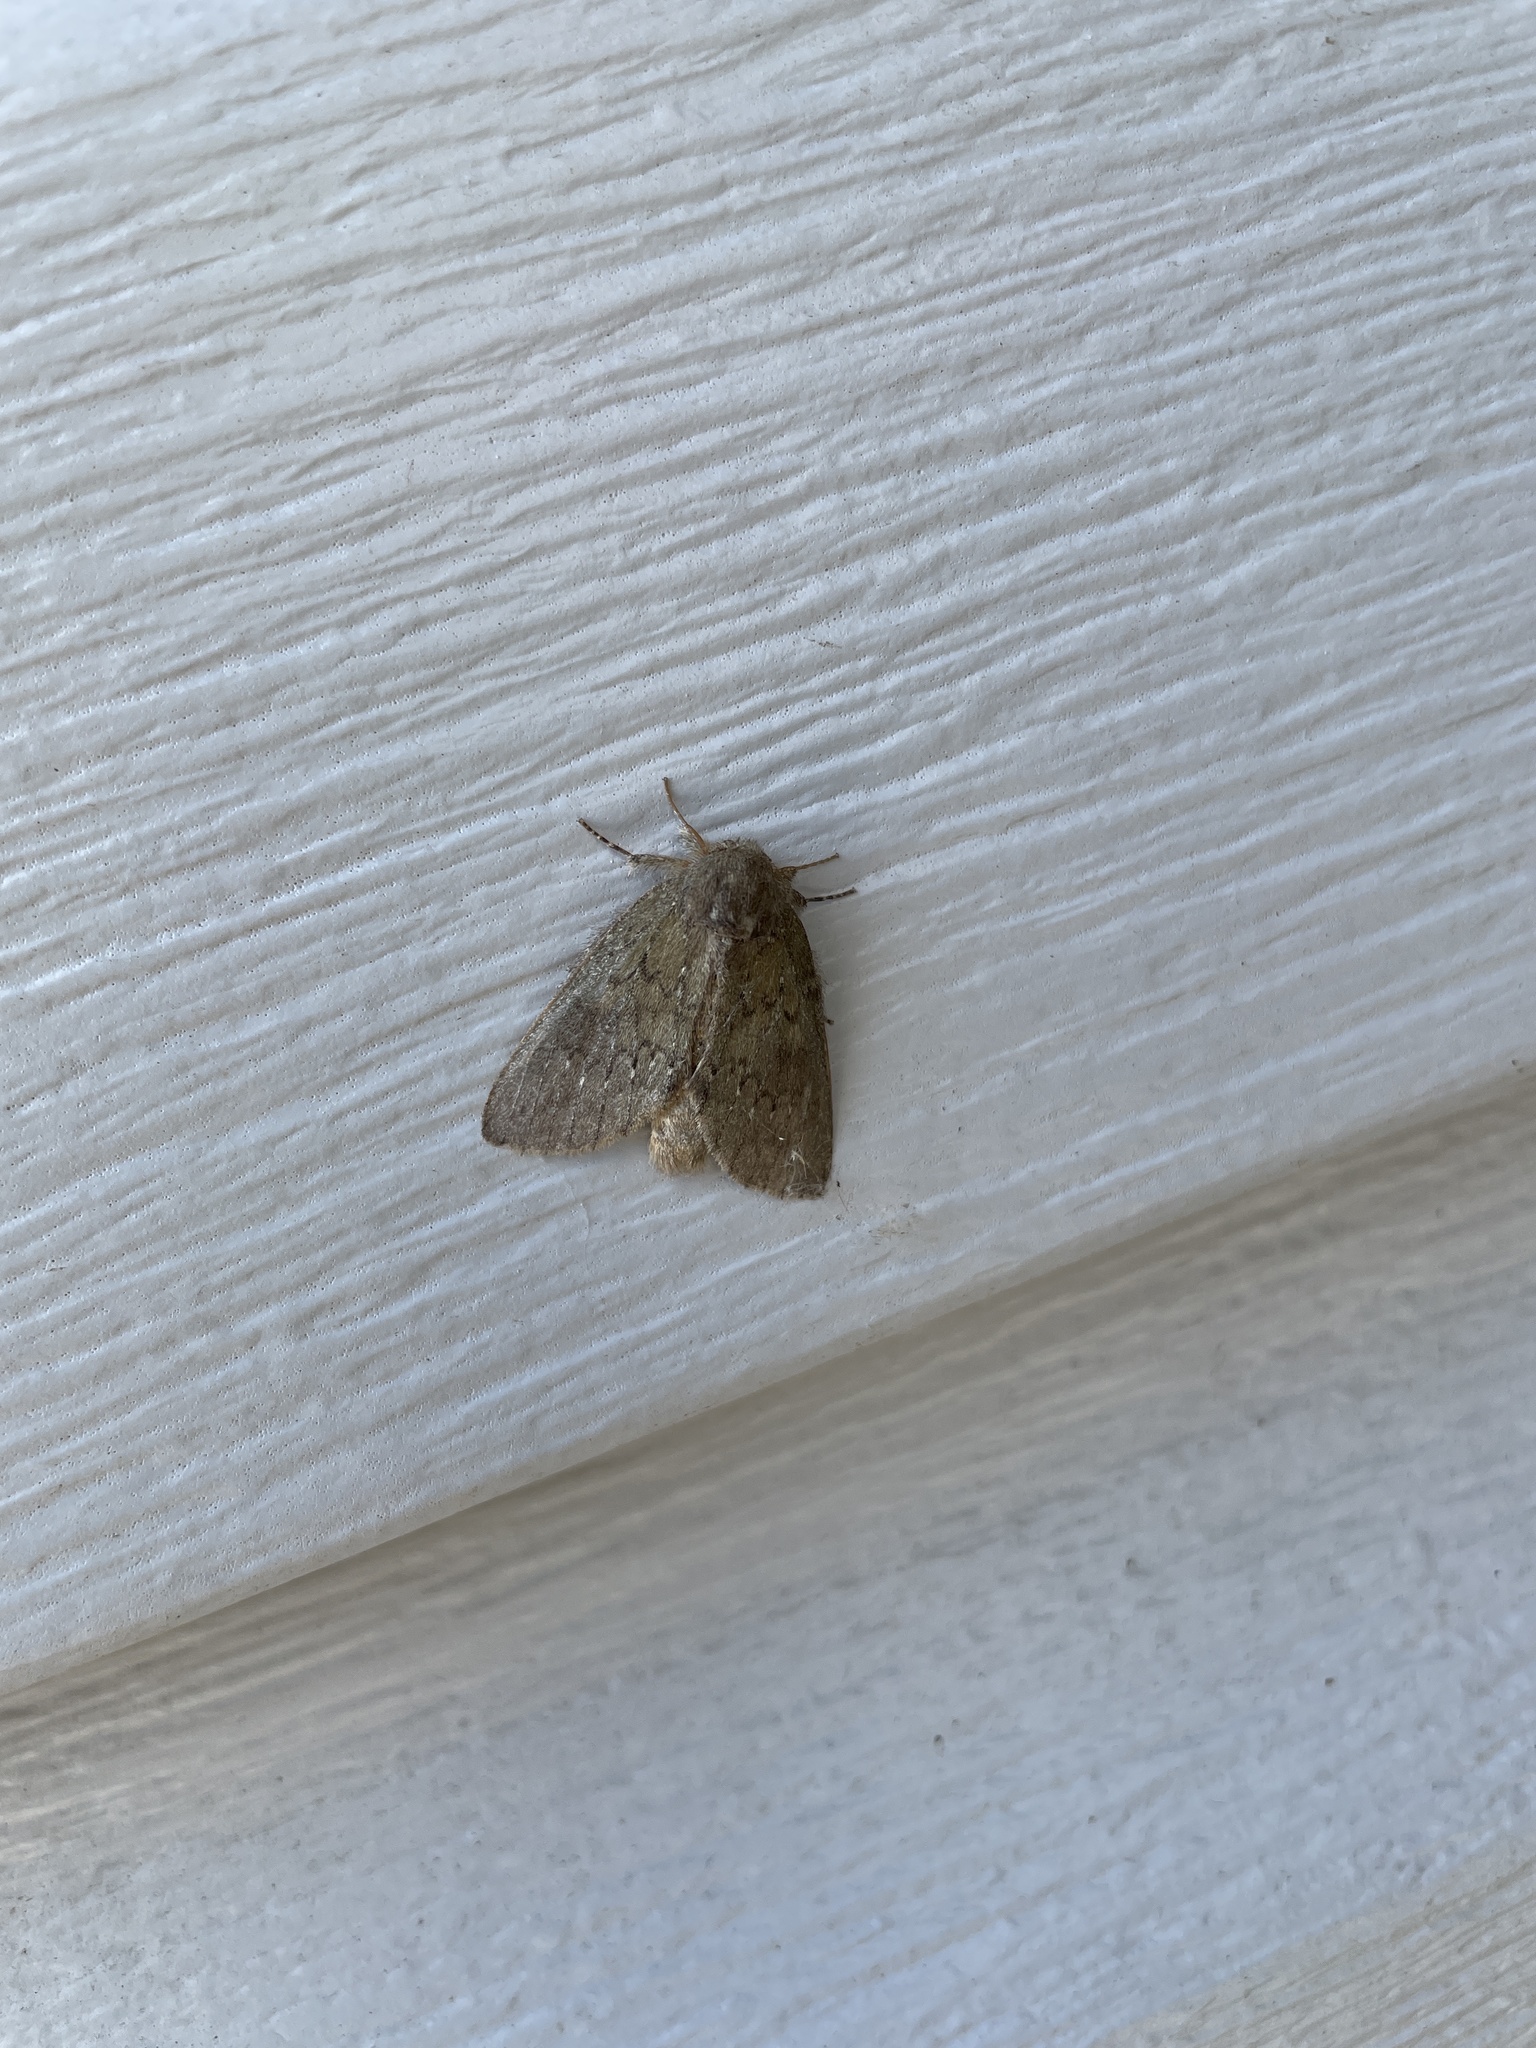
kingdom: Animalia
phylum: Arthropoda
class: Insecta
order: Lepidoptera
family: Notodontidae
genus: Misogada
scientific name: Misogada unicolor
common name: Drab prominent
